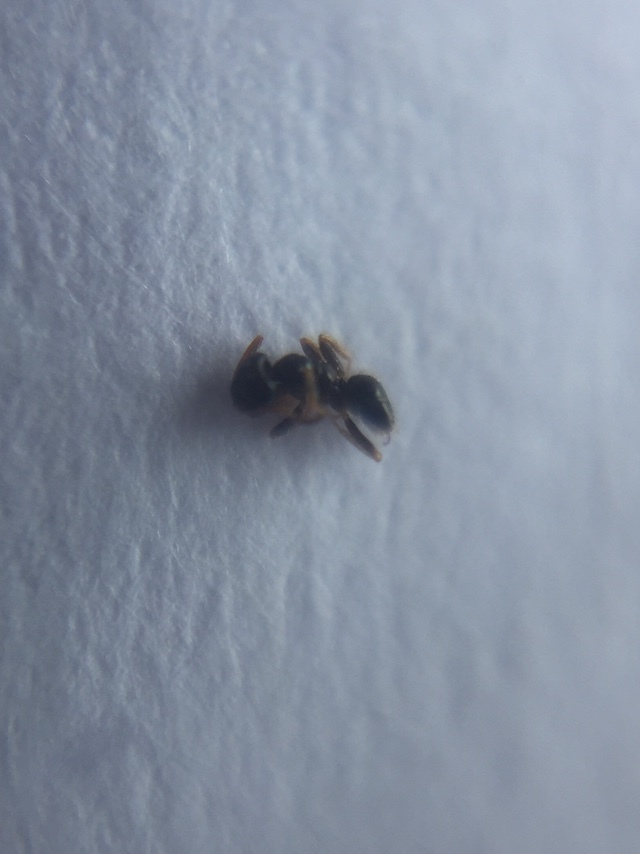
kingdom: Animalia
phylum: Arthropoda
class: Insecta
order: Hymenoptera
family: Formicidae
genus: Lepisiota
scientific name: Lepisiota rothneyi
